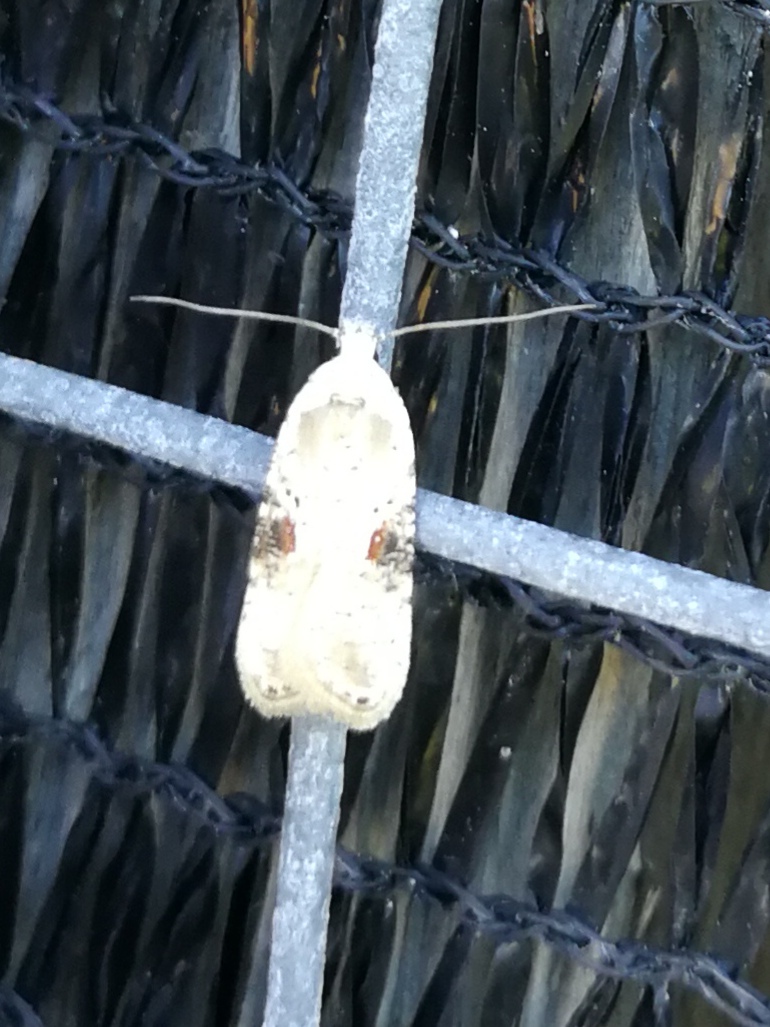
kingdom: Animalia
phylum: Arthropoda
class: Insecta
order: Lepidoptera
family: Depressariidae
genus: Agonopterix
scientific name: Agonopterix alstroemeriana
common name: Moth
